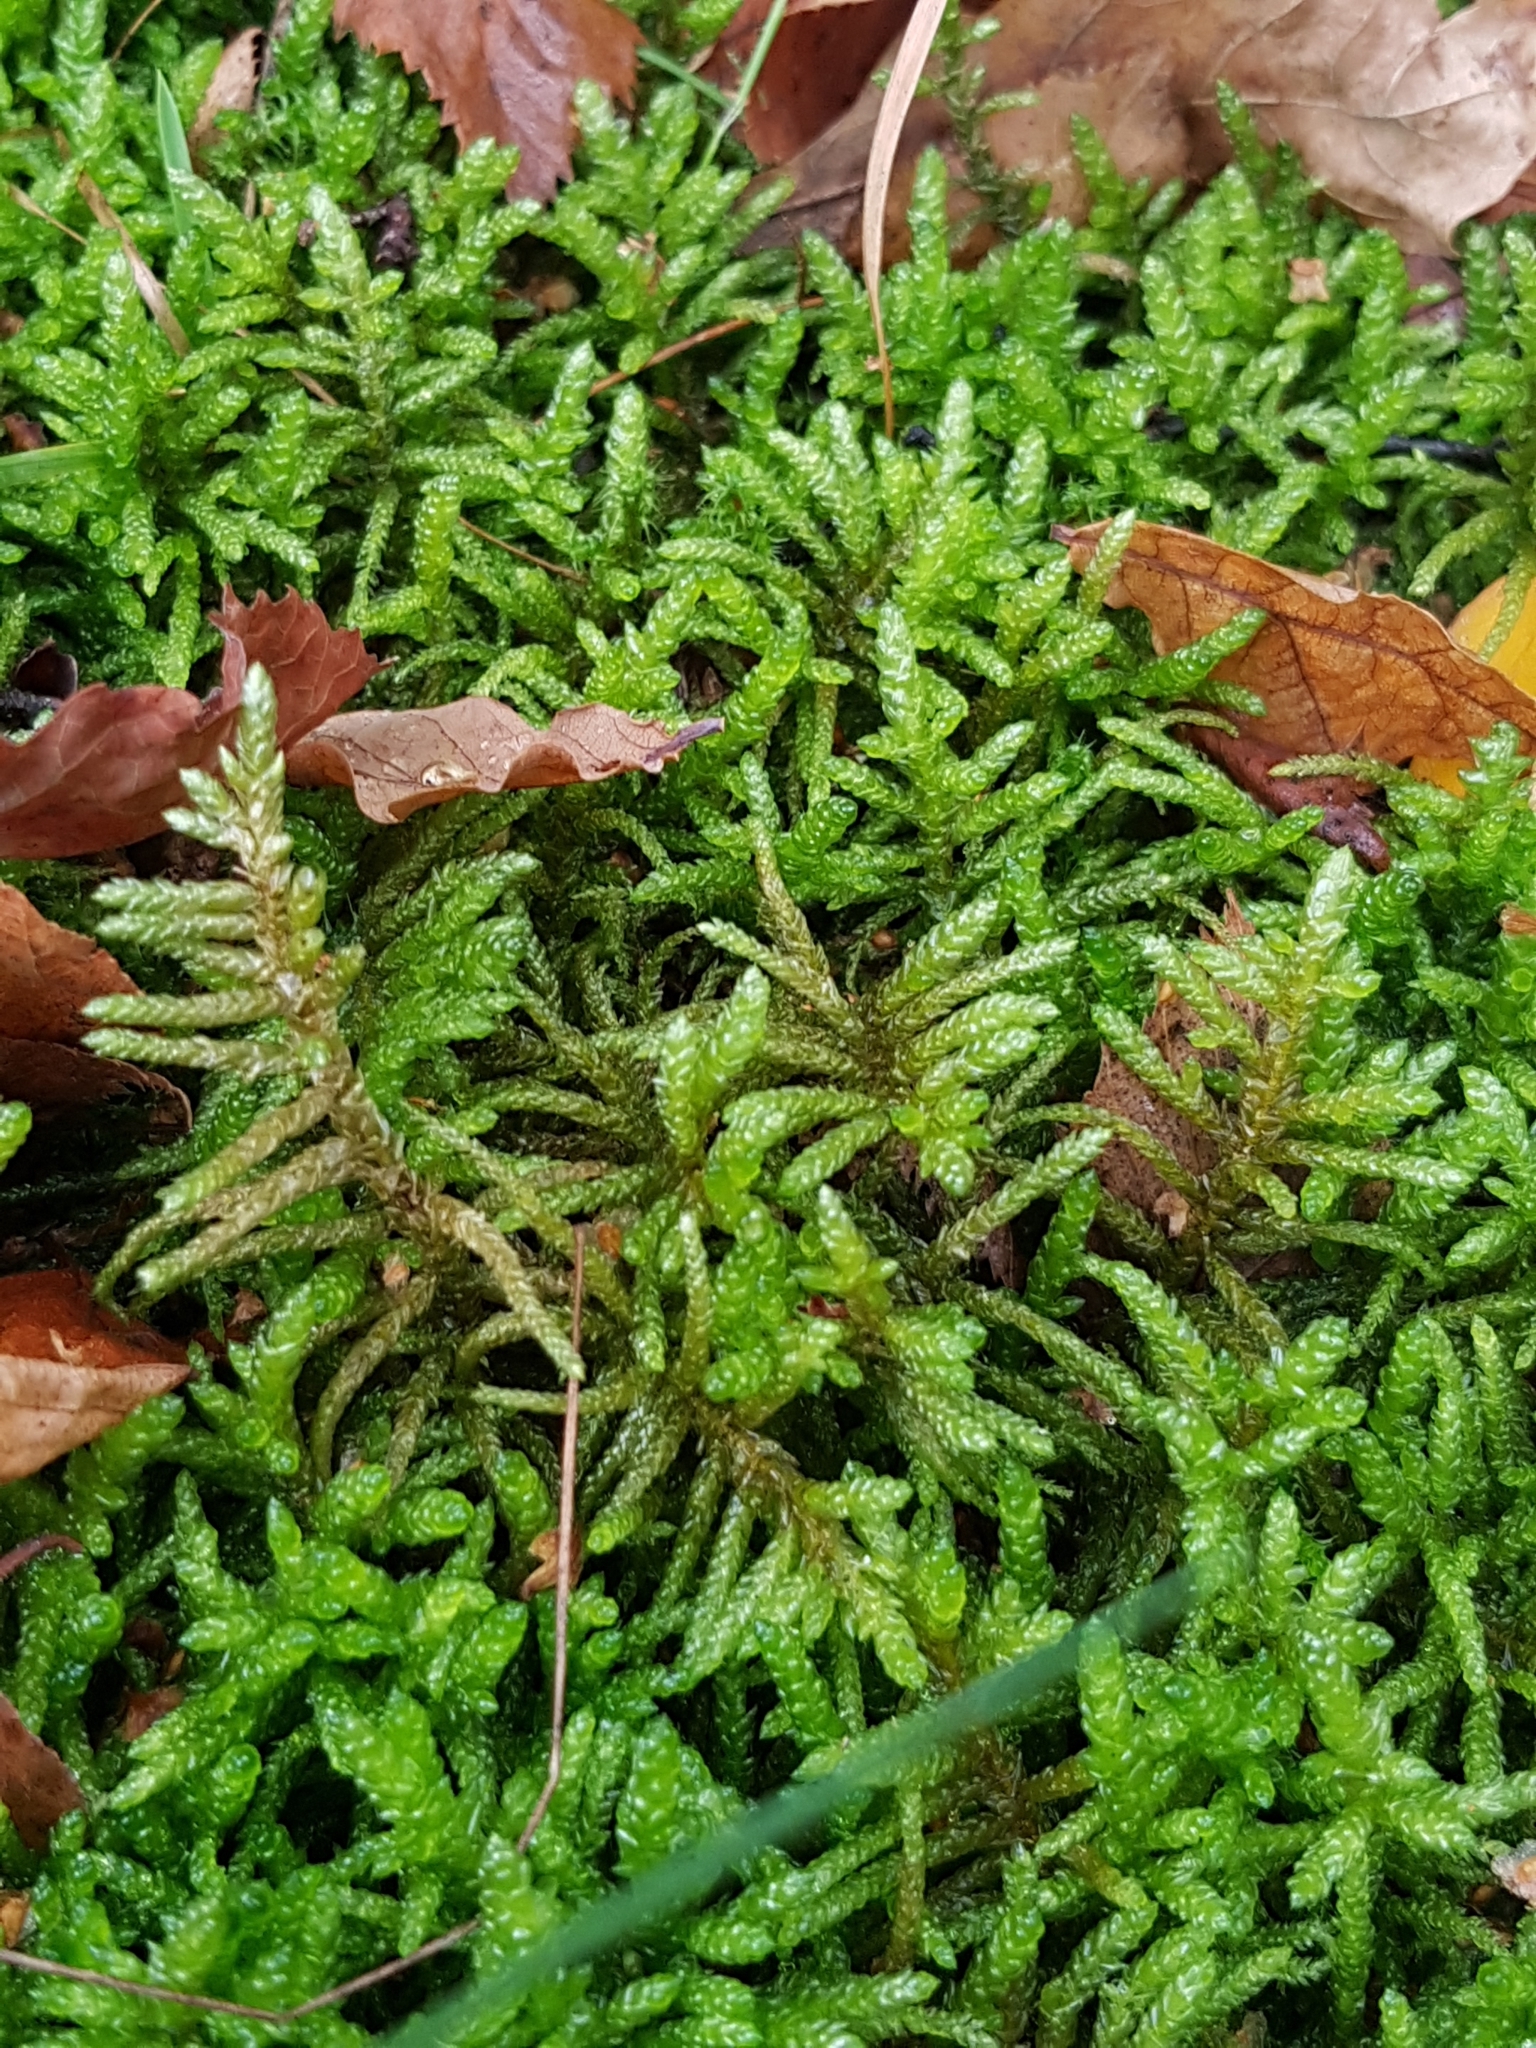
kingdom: Plantae
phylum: Bryophyta
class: Bryopsida
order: Hypnales
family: Brachytheciaceae
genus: Pseudoscleropodium
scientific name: Pseudoscleropodium purum
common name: Neat feather-moss
